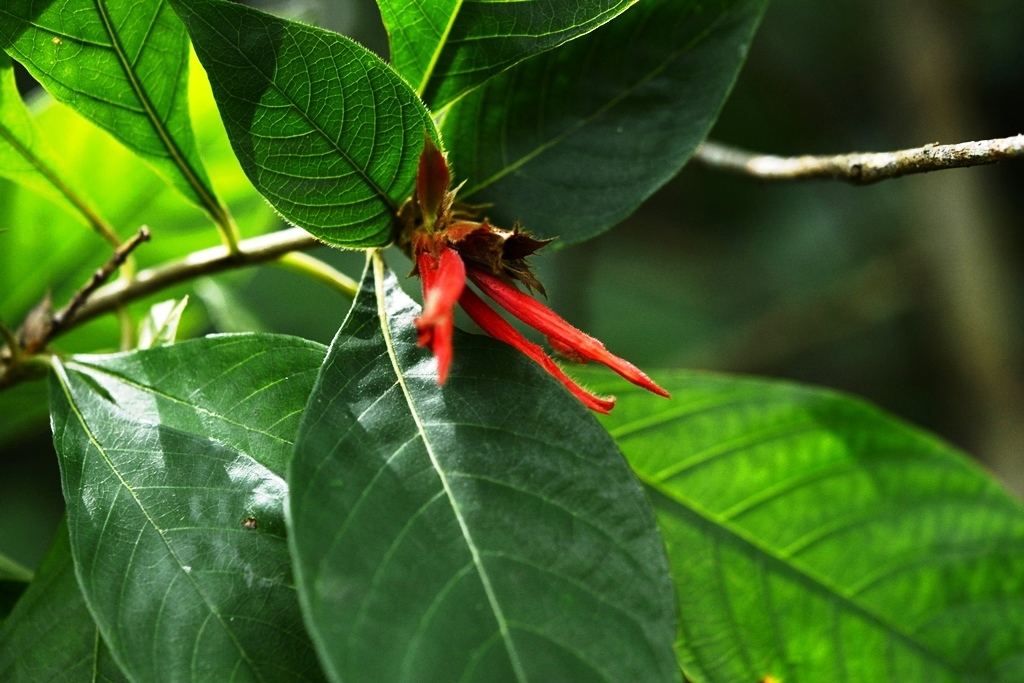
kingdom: Plantae
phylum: Tracheophyta
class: Magnoliopsida
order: Lamiales
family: Acanthaceae
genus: Aphelandra
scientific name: Aphelandra scabra
